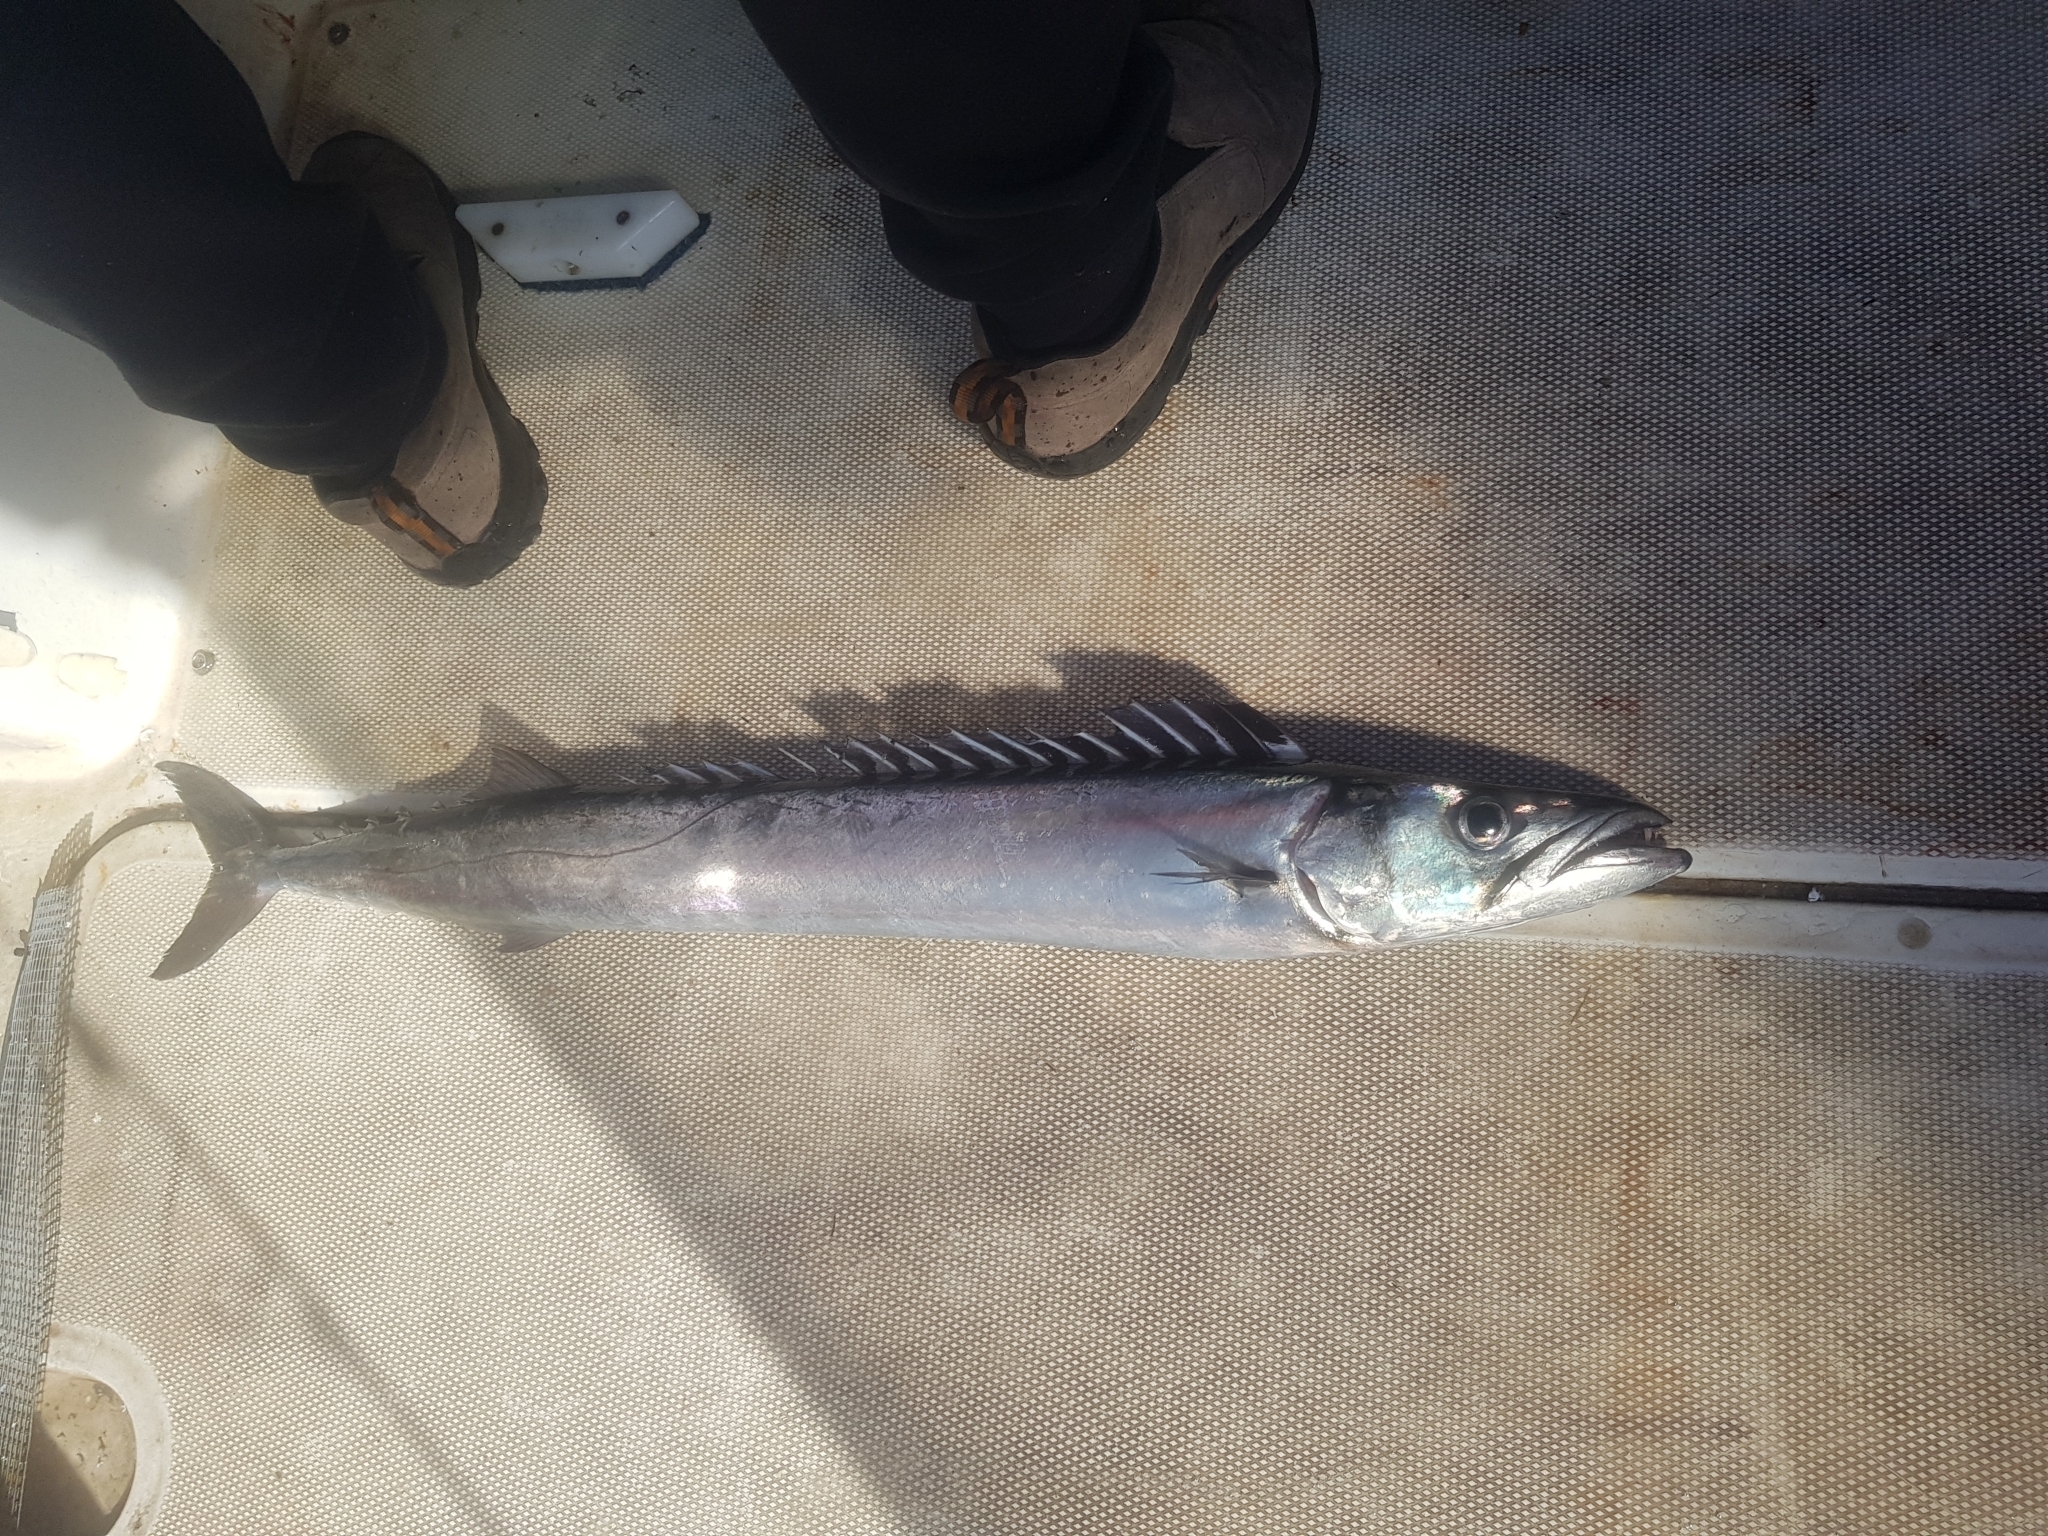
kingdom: Animalia
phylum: Chordata
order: Perciformes
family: Gempylidae
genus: Thyrsites
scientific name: Thyrsites atun
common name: Snoek
